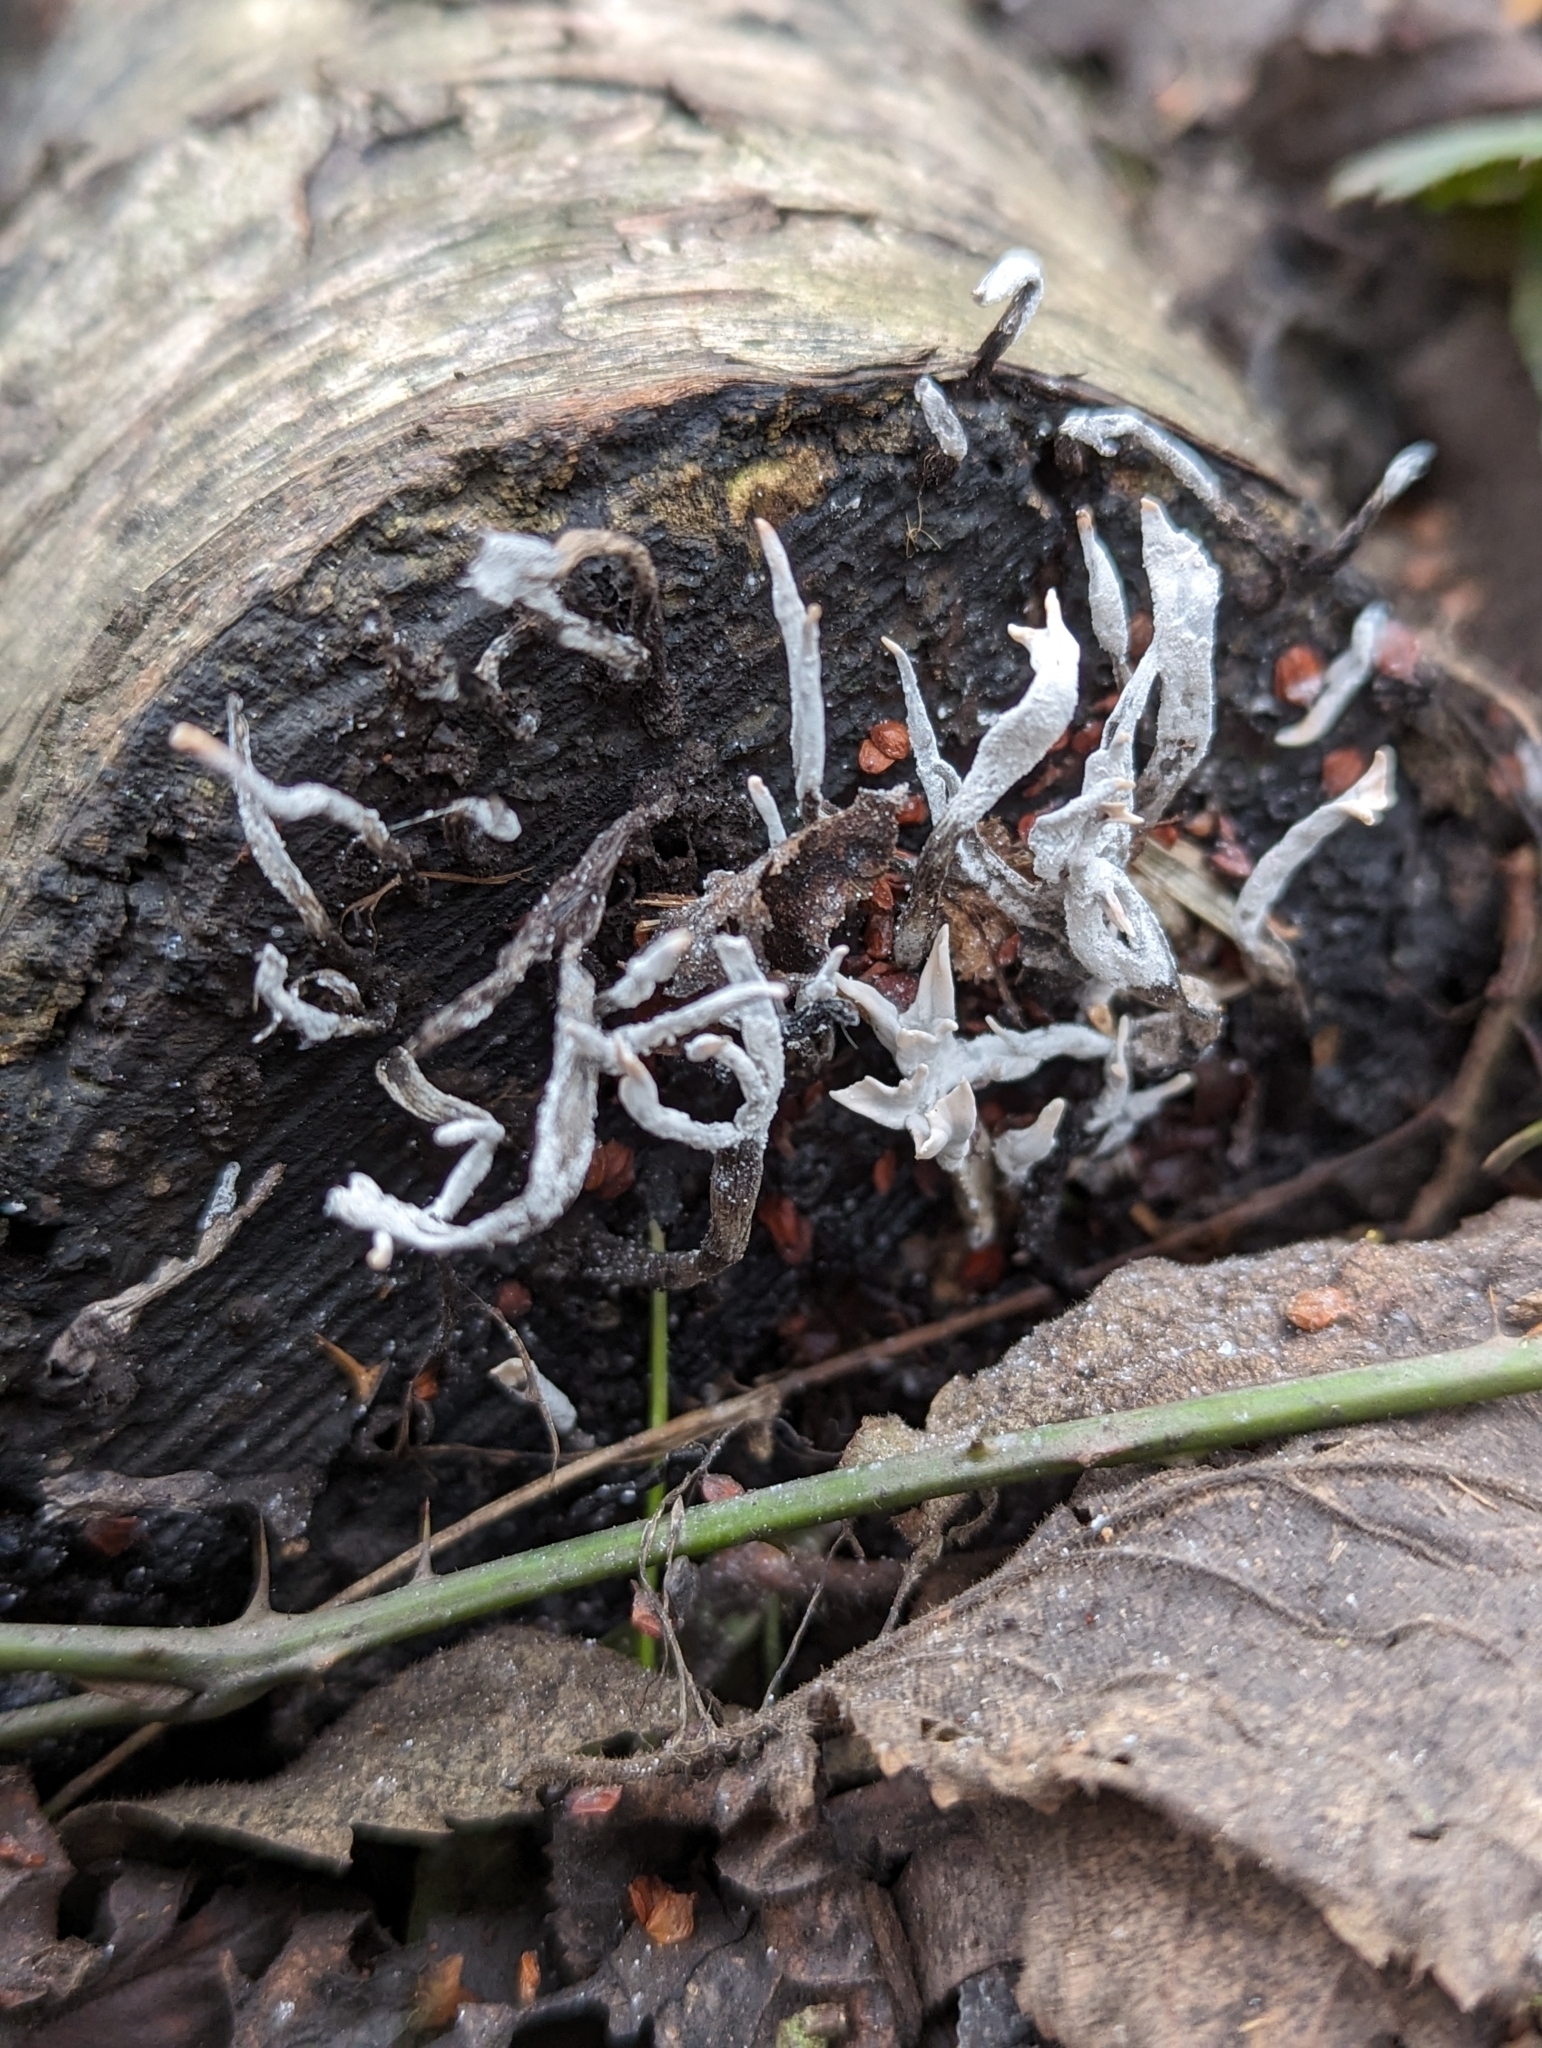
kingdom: Fungi
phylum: Ascomycota
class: Sordariomycetes
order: Xylariales
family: Xylariaceae
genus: Xylaria
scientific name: Xylaria hypoxylon
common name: Candle-snuff fungus
